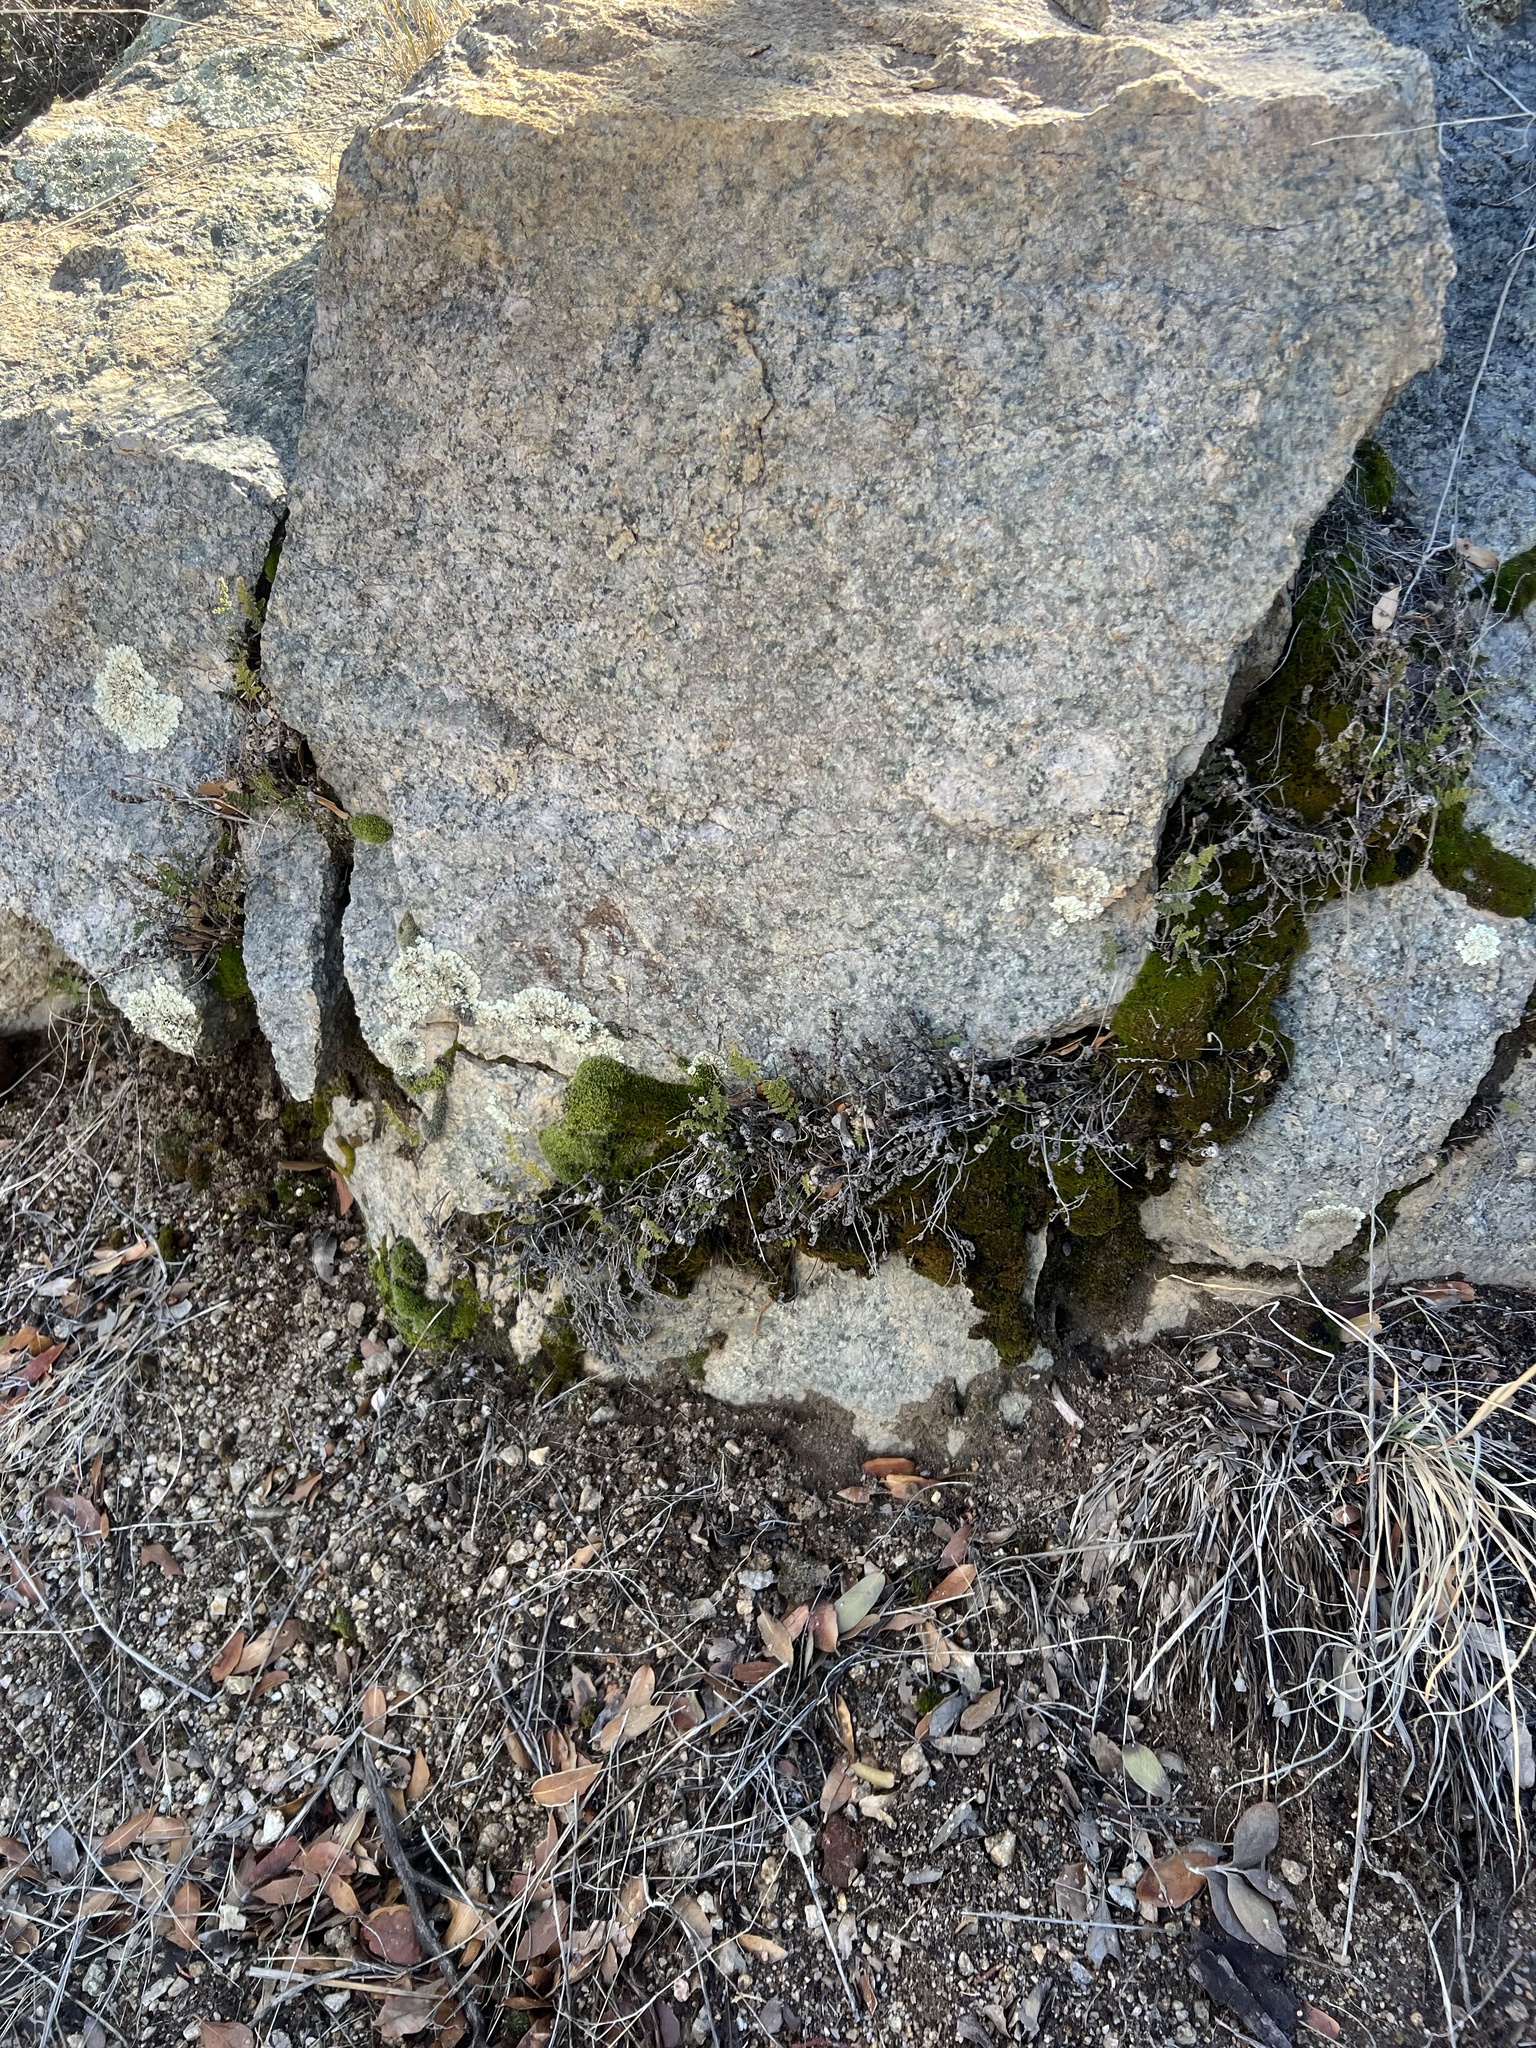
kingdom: Plantae
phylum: Tracheophyta
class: Polypodiopsida
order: Polypodiales
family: Pteridaceae
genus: Myriopteris
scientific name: Myriopteris fendleri
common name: Fendler's lip fern
